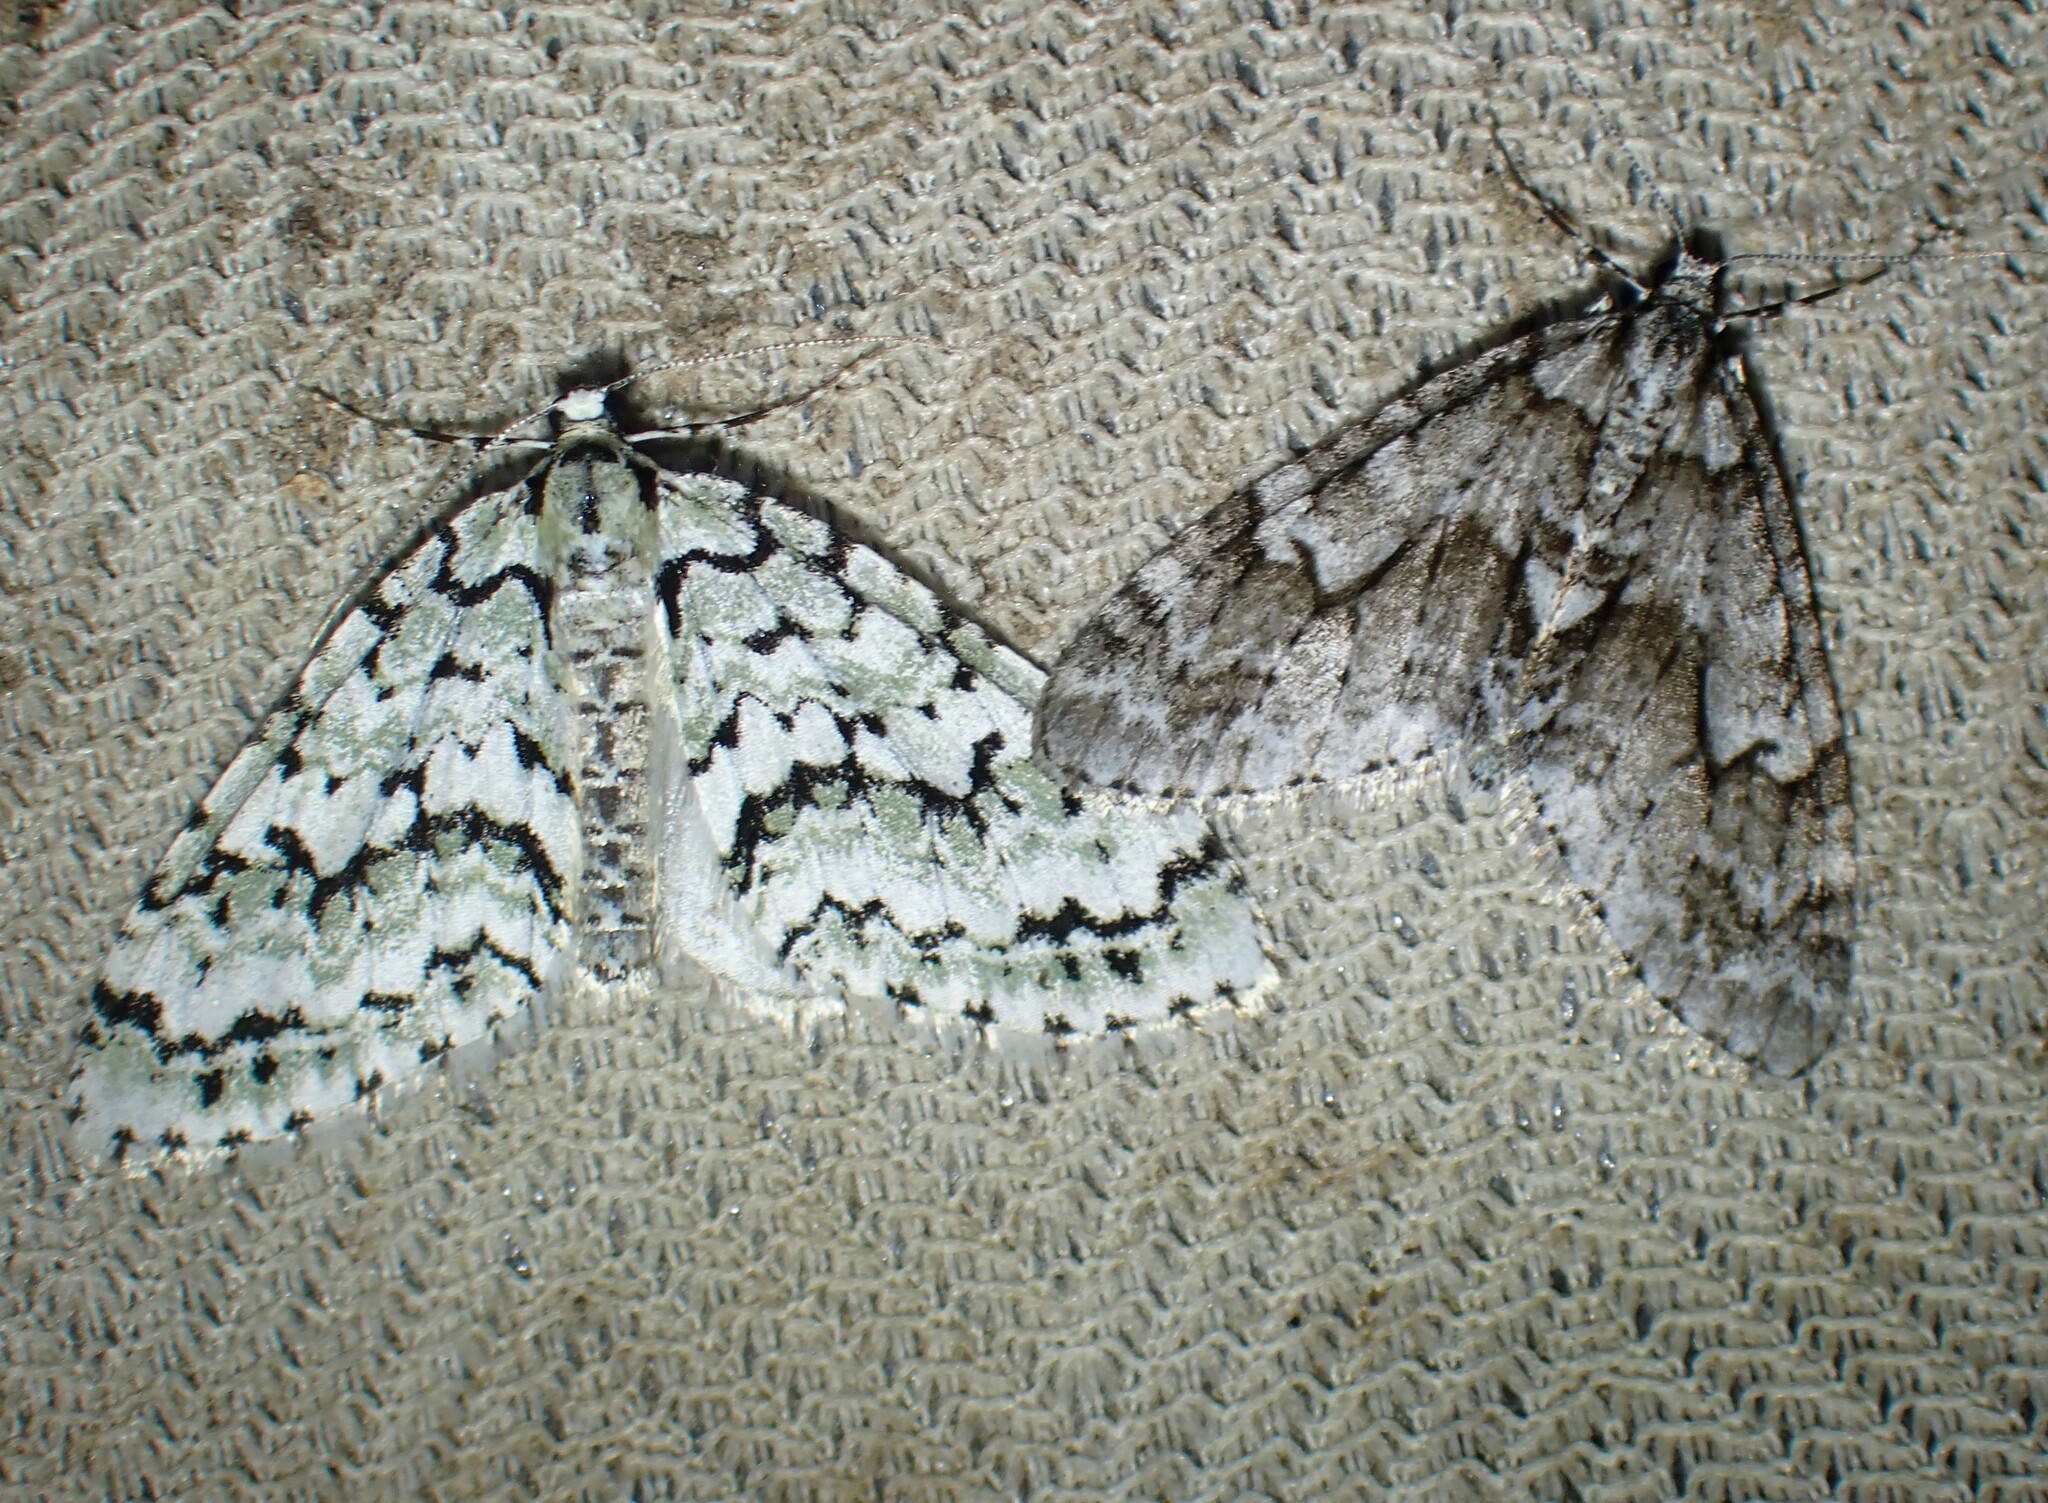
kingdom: Animalia
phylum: Arthropoda
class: Insecta
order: Lepidoptera
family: Geometridae
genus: Cladara
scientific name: Cladara limitaria
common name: Mottled gray carpet
